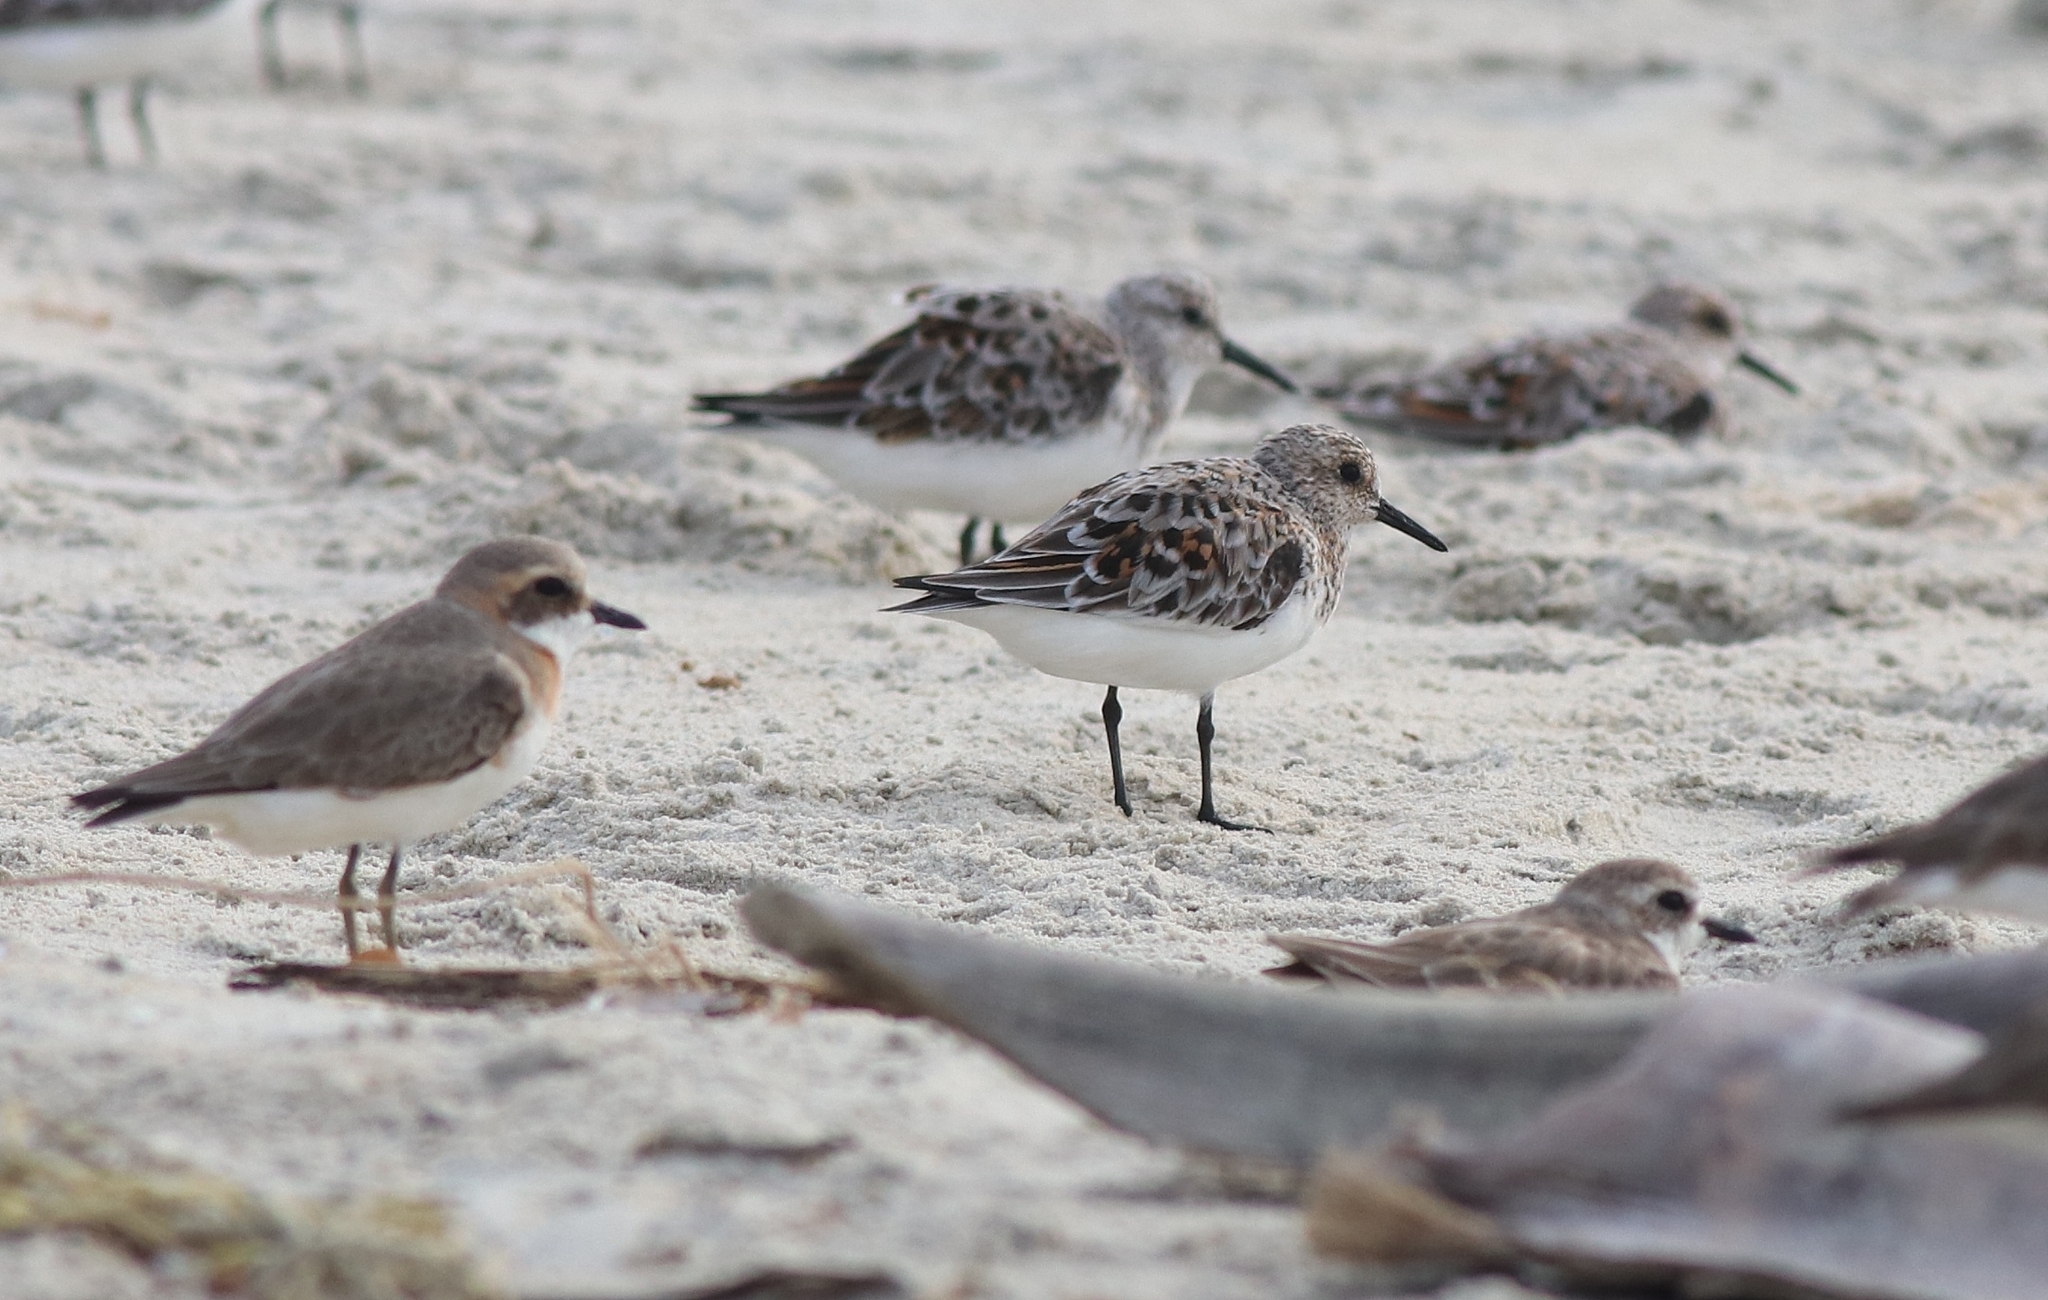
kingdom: Animalia
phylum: Chordata
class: Aves
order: Charadriiformes
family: Charadriidae
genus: Anarhynchus
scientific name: Anarhynchus
